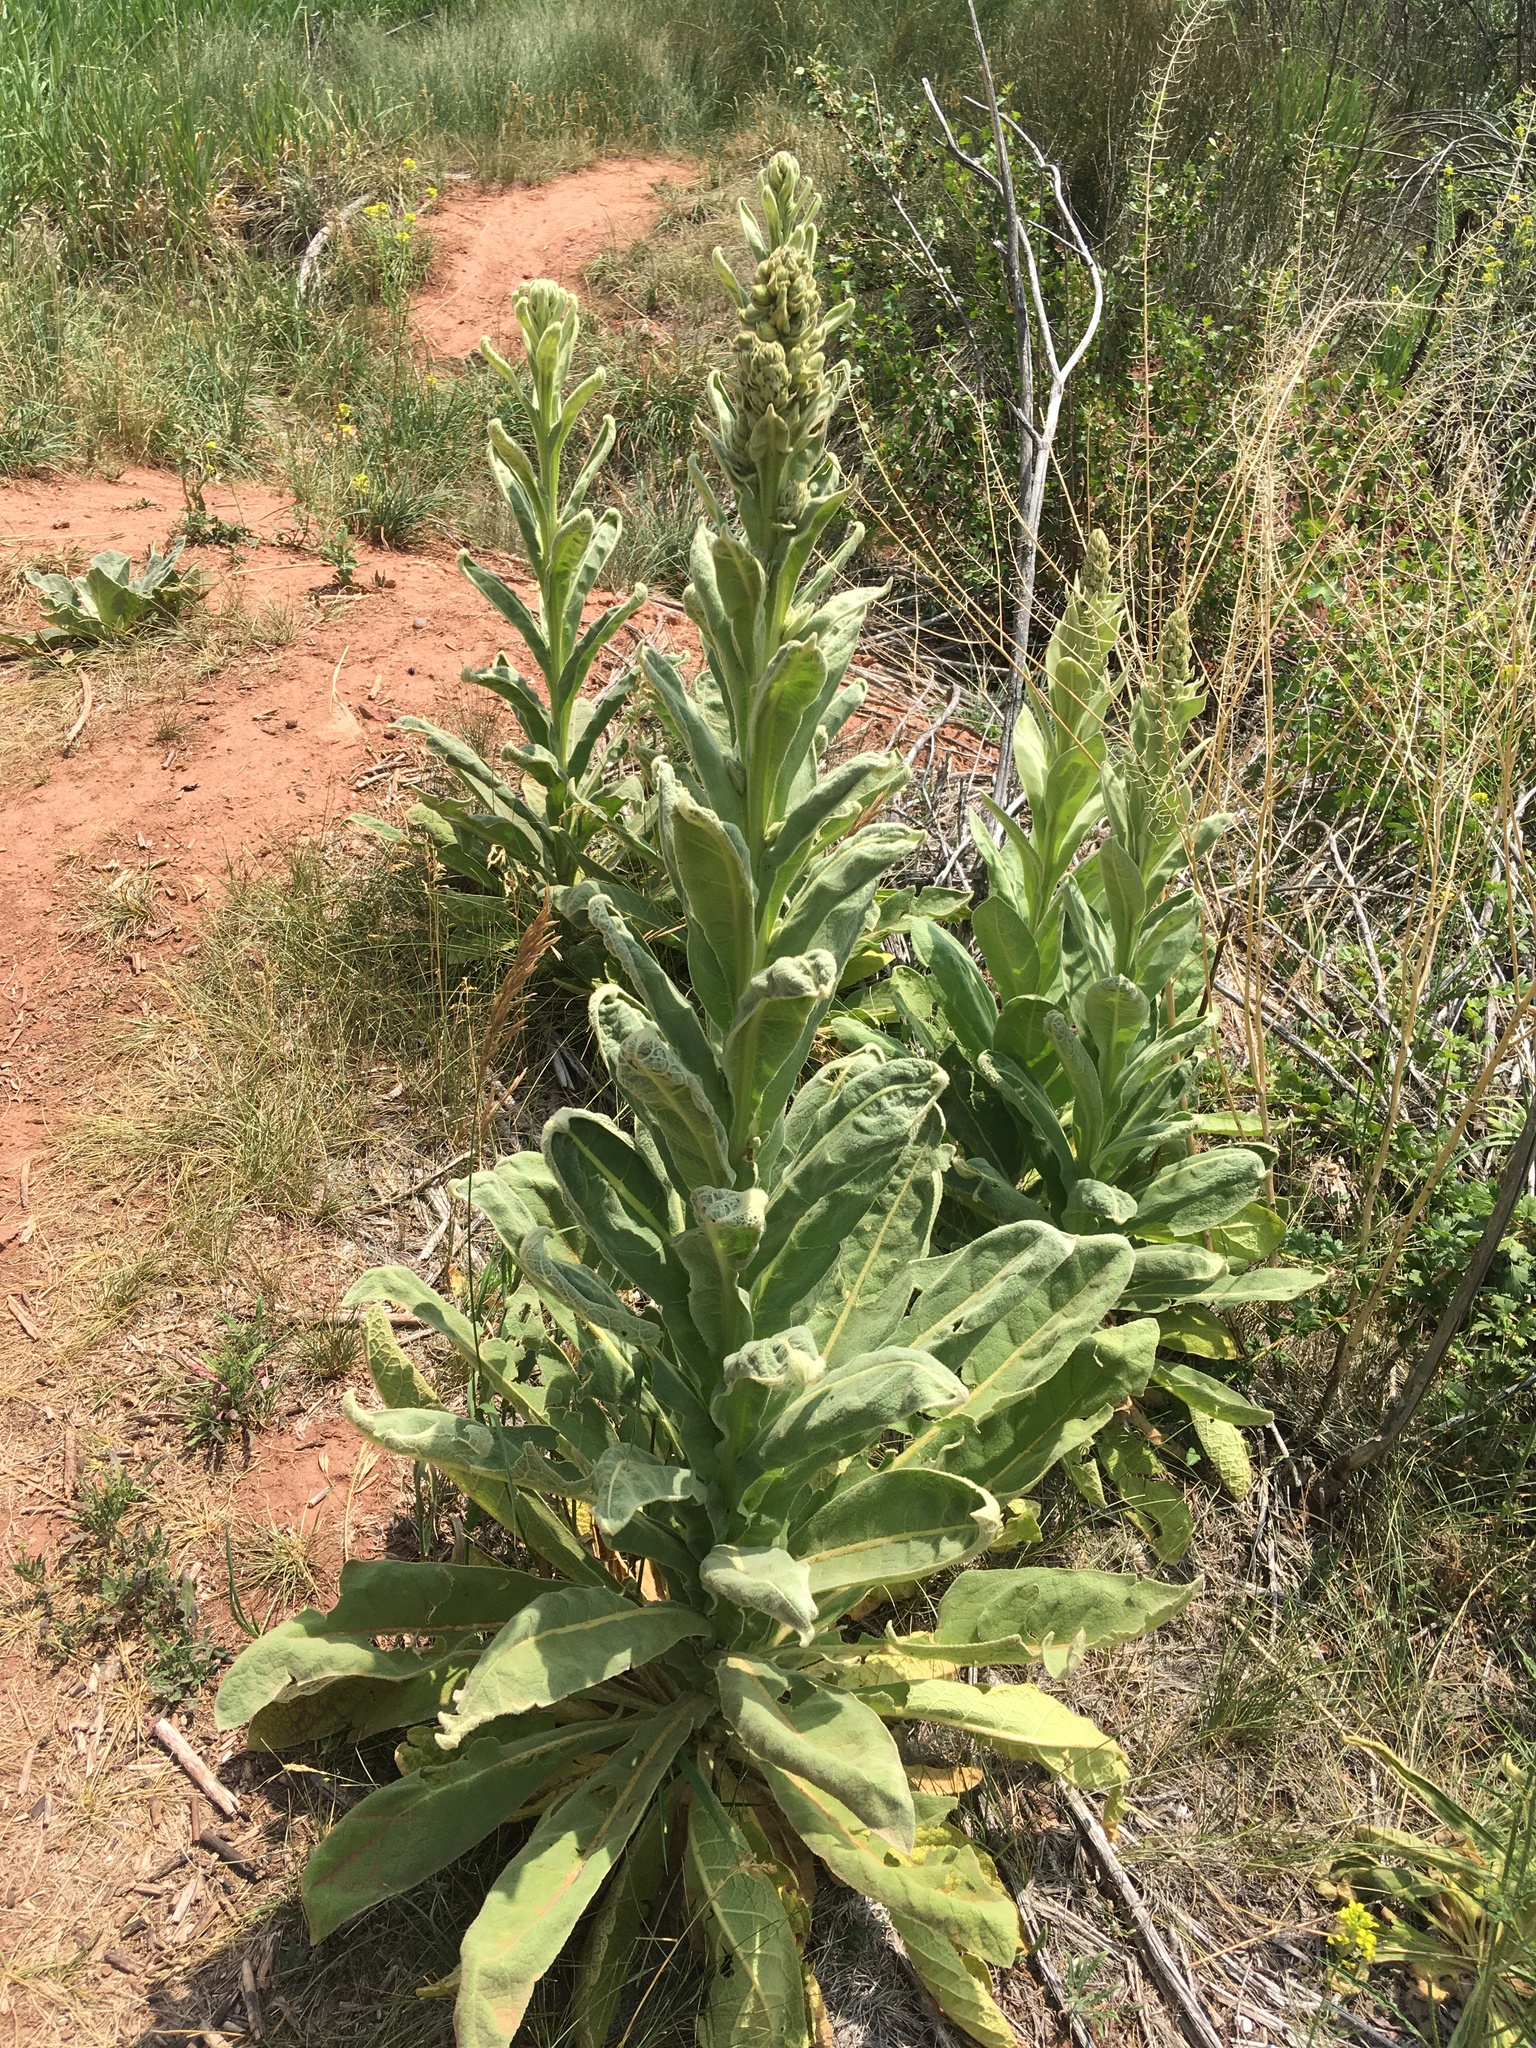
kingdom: Plantae
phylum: Tracheophyta
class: Magnoliopsida
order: Lamiales
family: Scrophulariaceae
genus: Verbascum
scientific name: Verbascum thapsus
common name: Common mullein
